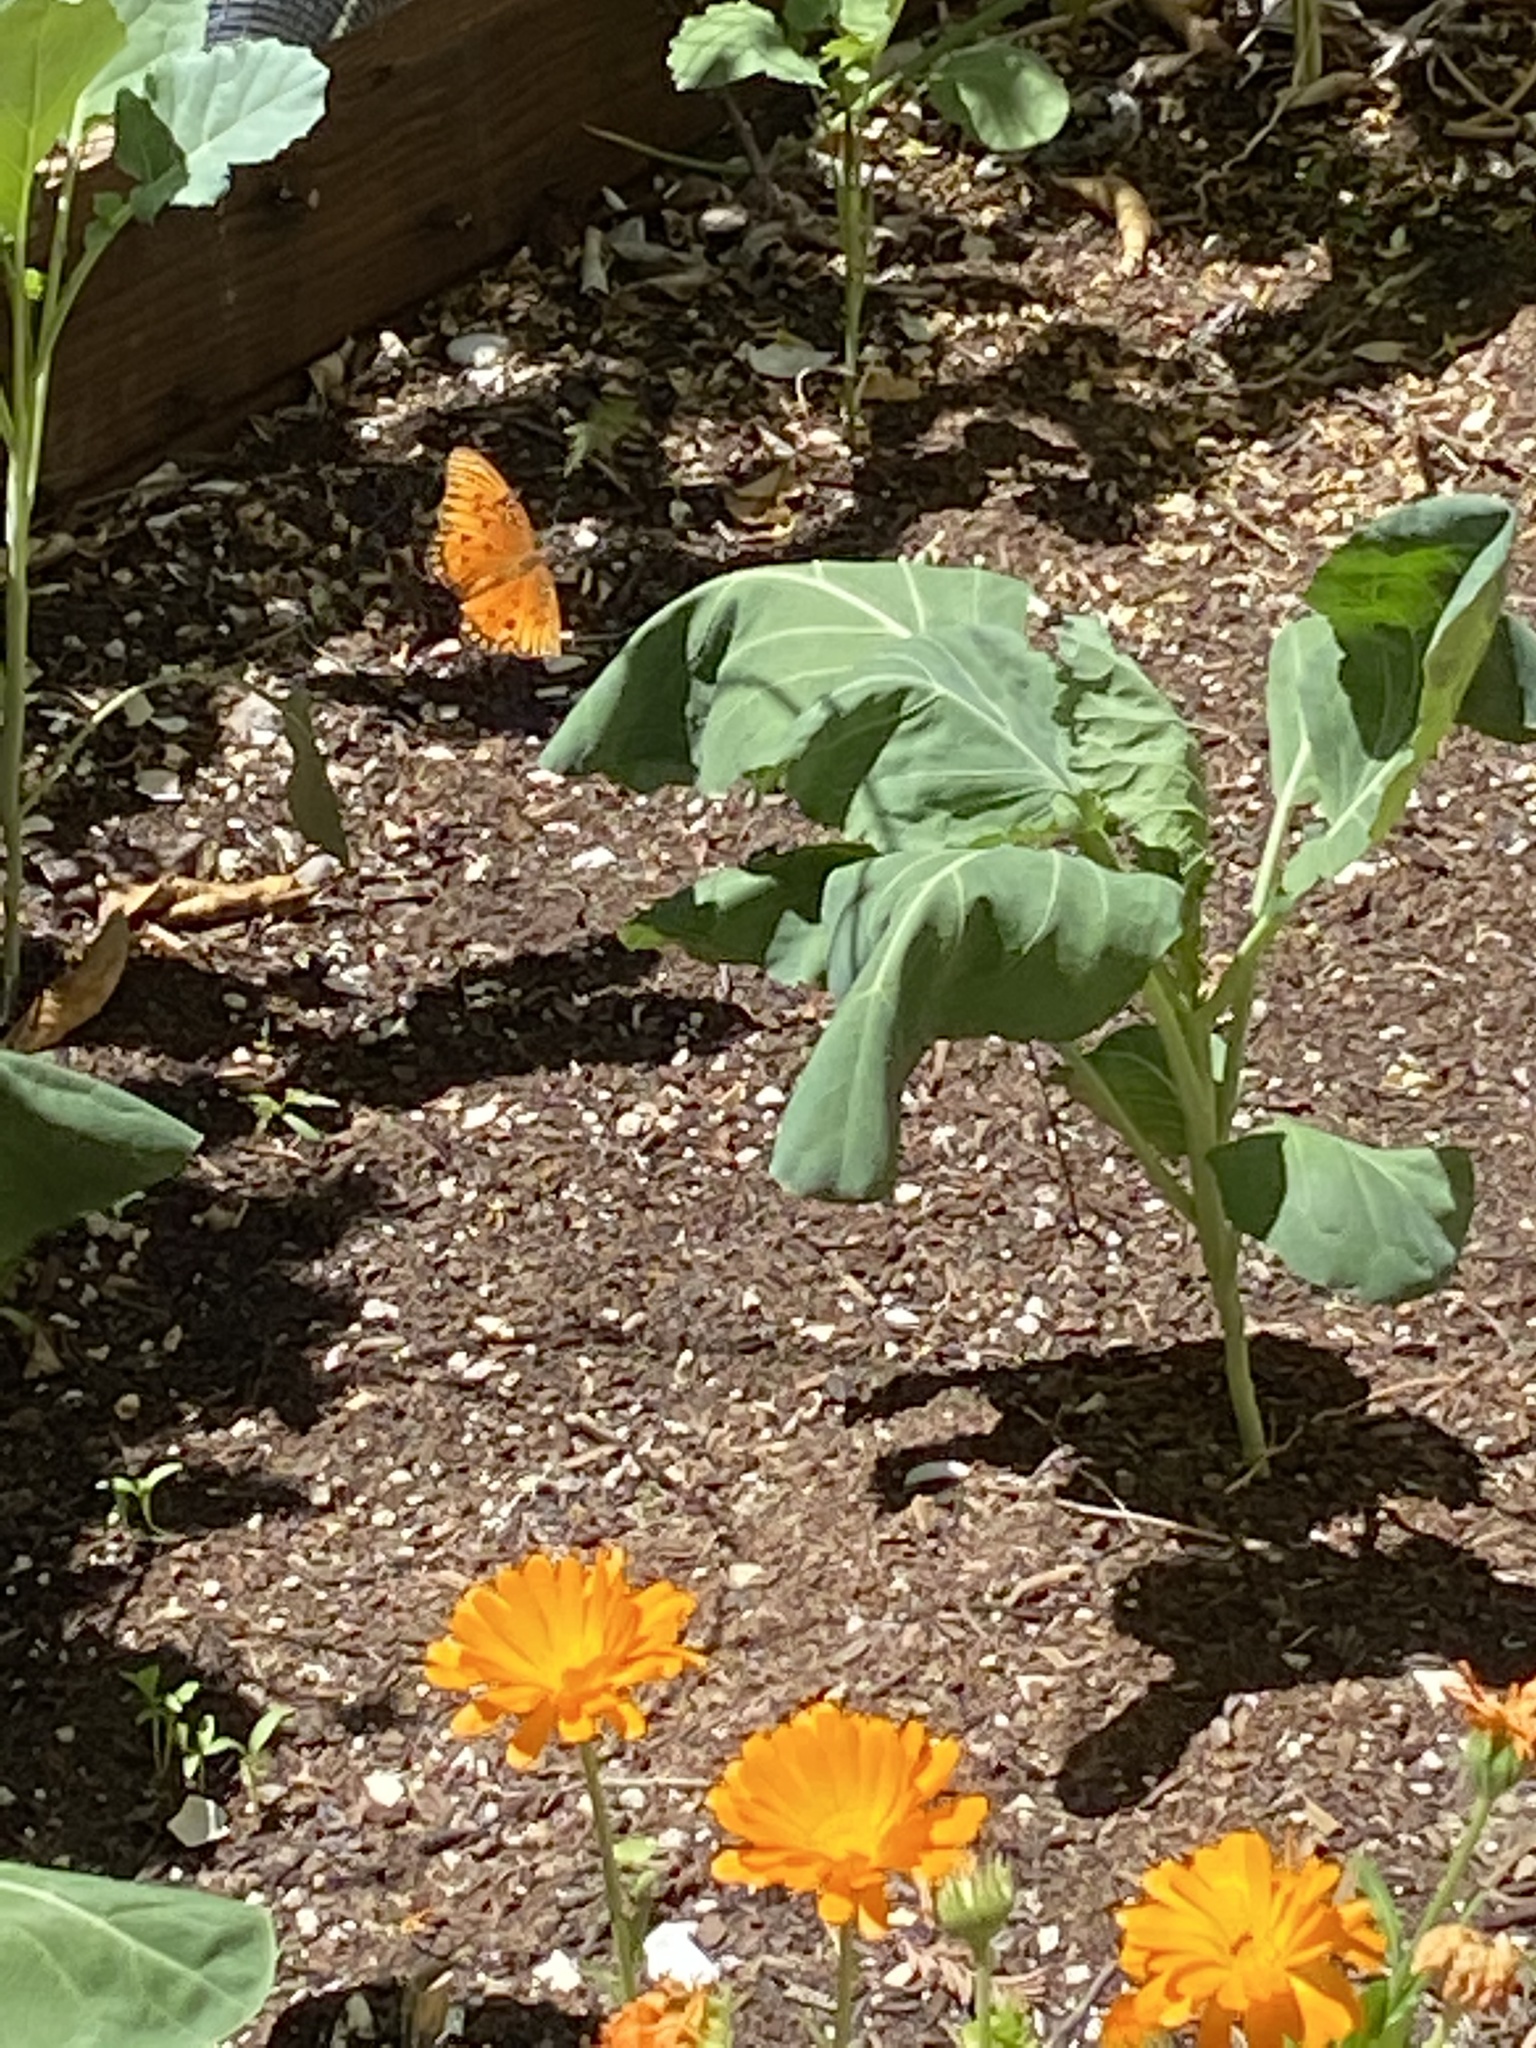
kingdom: Animalia
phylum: Arthropoda
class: Insecta
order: Lepidoptera
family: Nymphalidae
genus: Dione
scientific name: Dione vanillae
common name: Gulf fritillary
